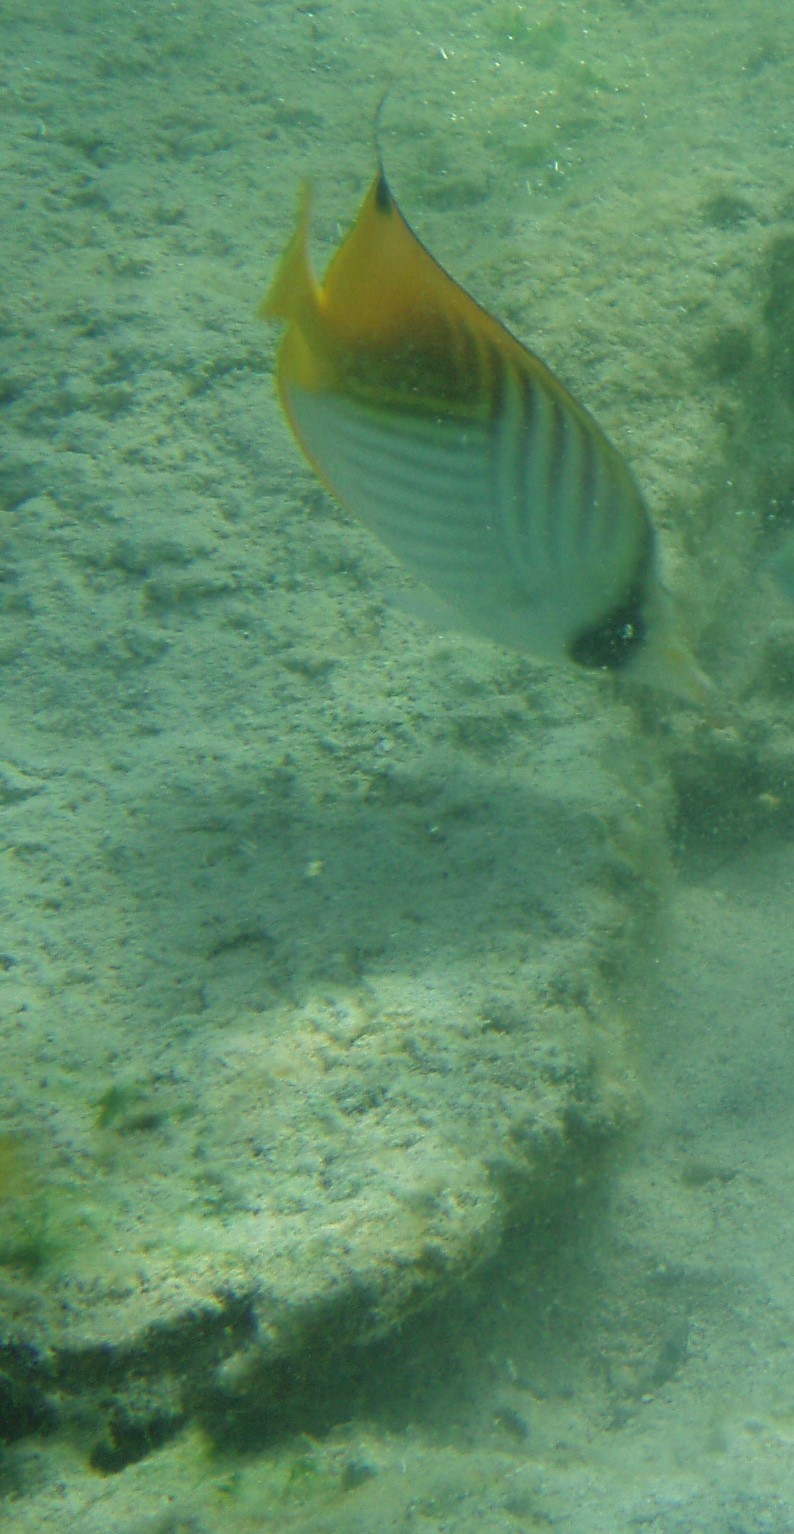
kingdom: Animalia
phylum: Chordata
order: Perciformes
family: Chaetodontidae
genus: Chaetodon
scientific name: Chaetodon auriga
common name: Threadfin butterflyfish
